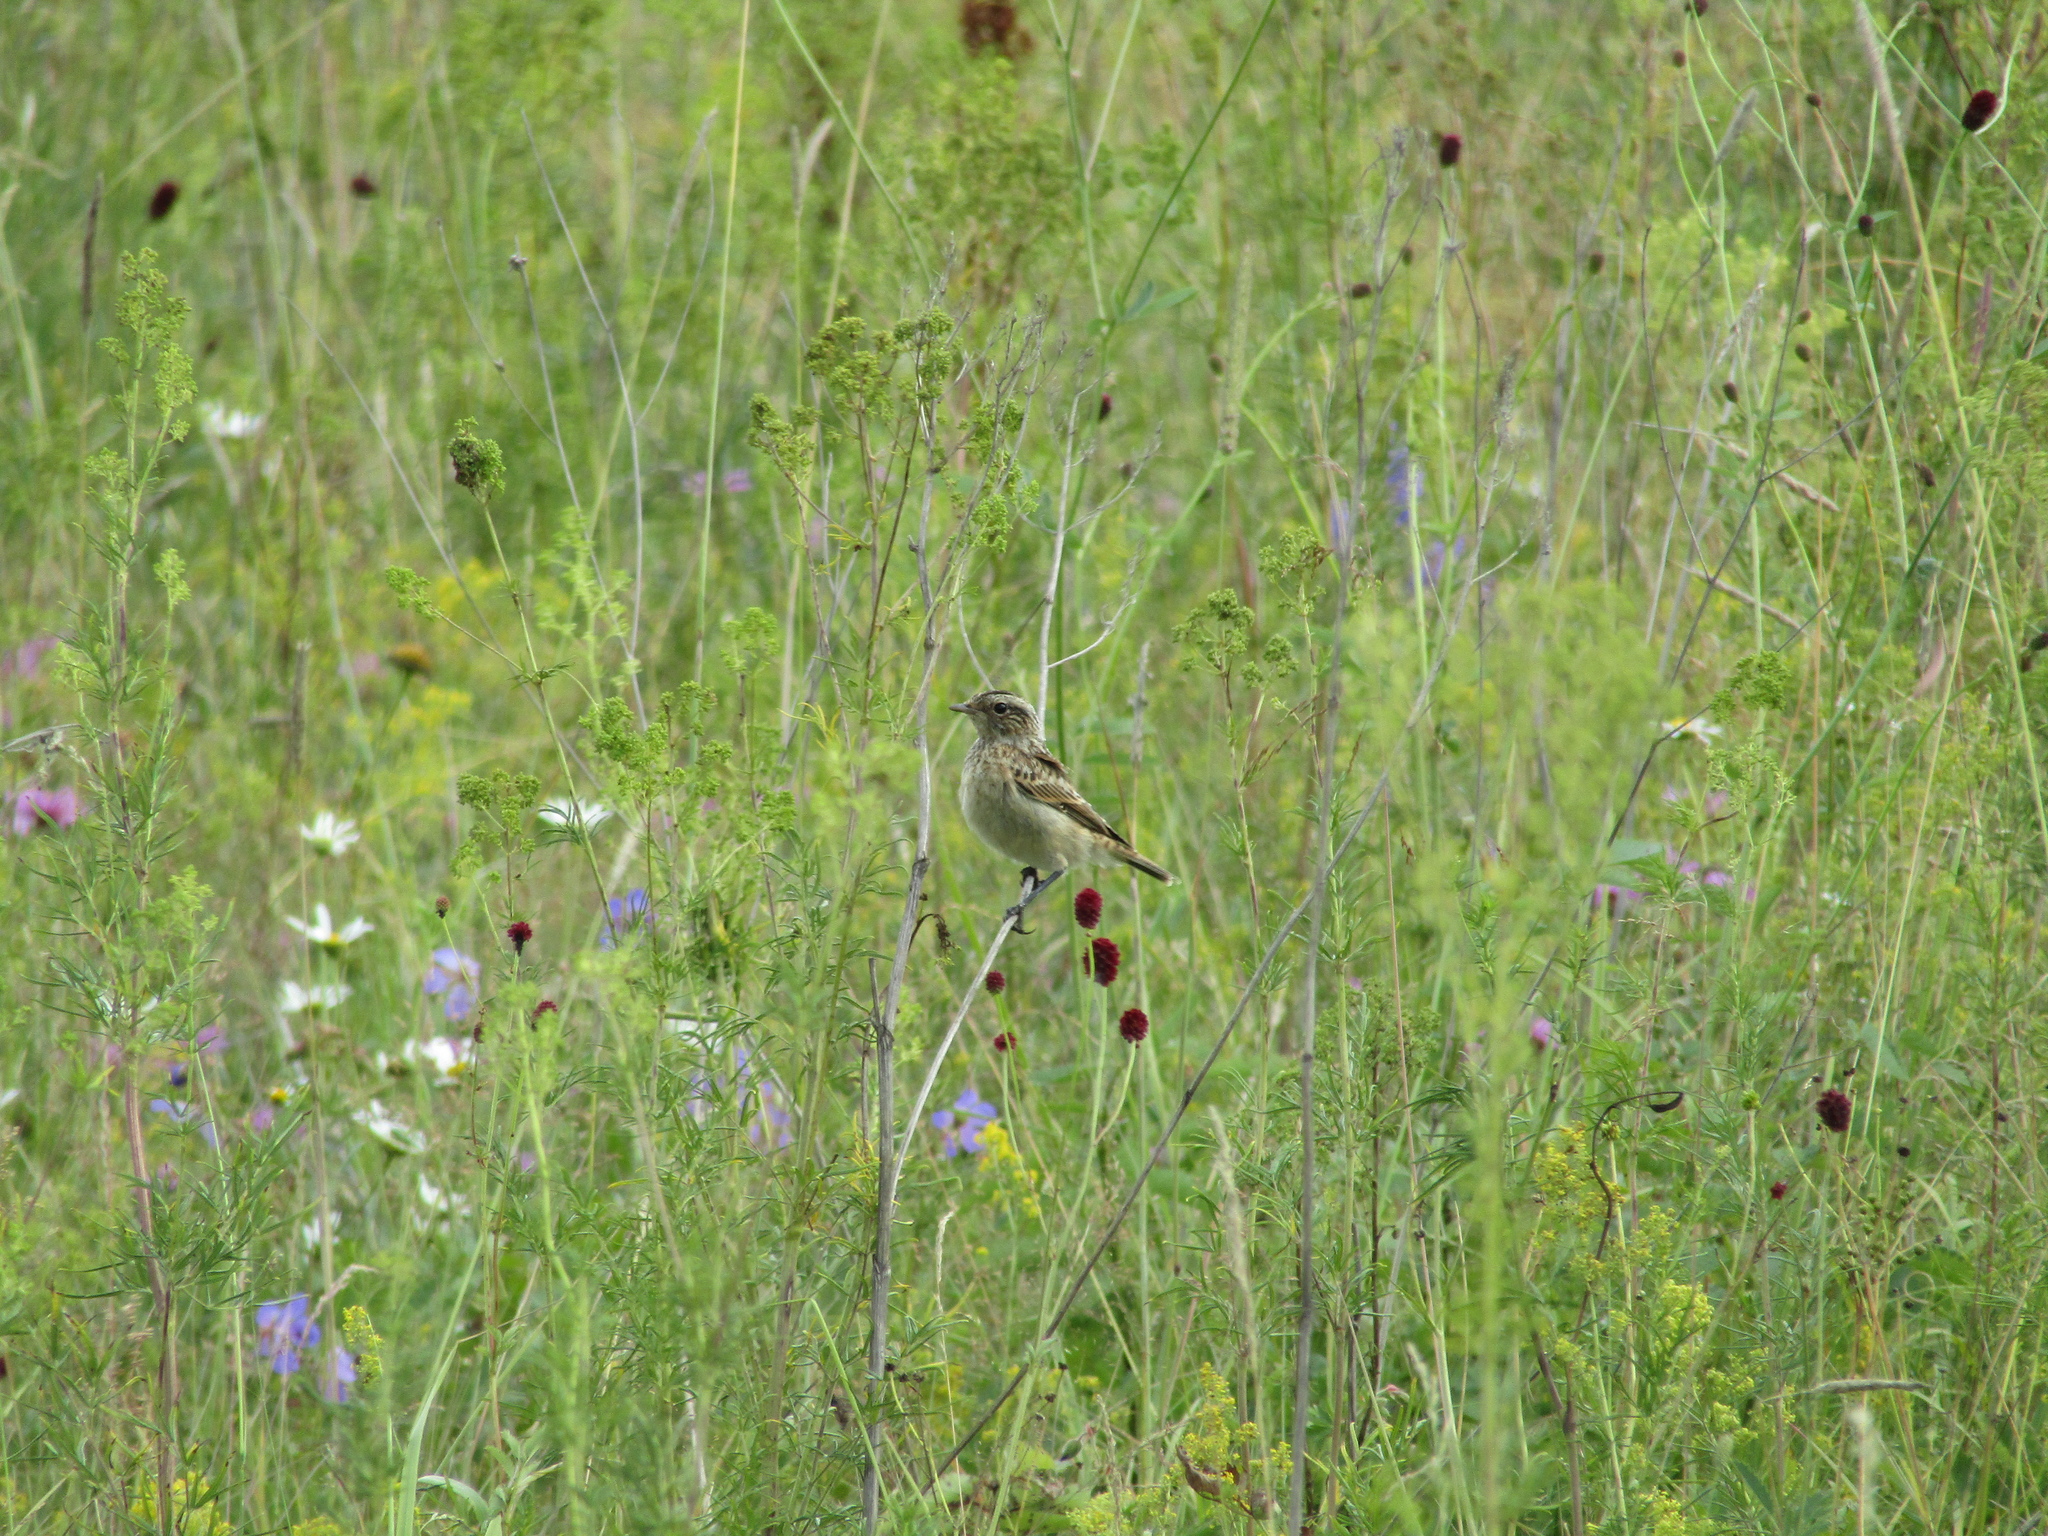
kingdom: Animalia
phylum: Chordata
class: Aves
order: Passeriformes
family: Muscicapidae
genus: Saxicola
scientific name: Saxicola rubetra
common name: Whinchat
